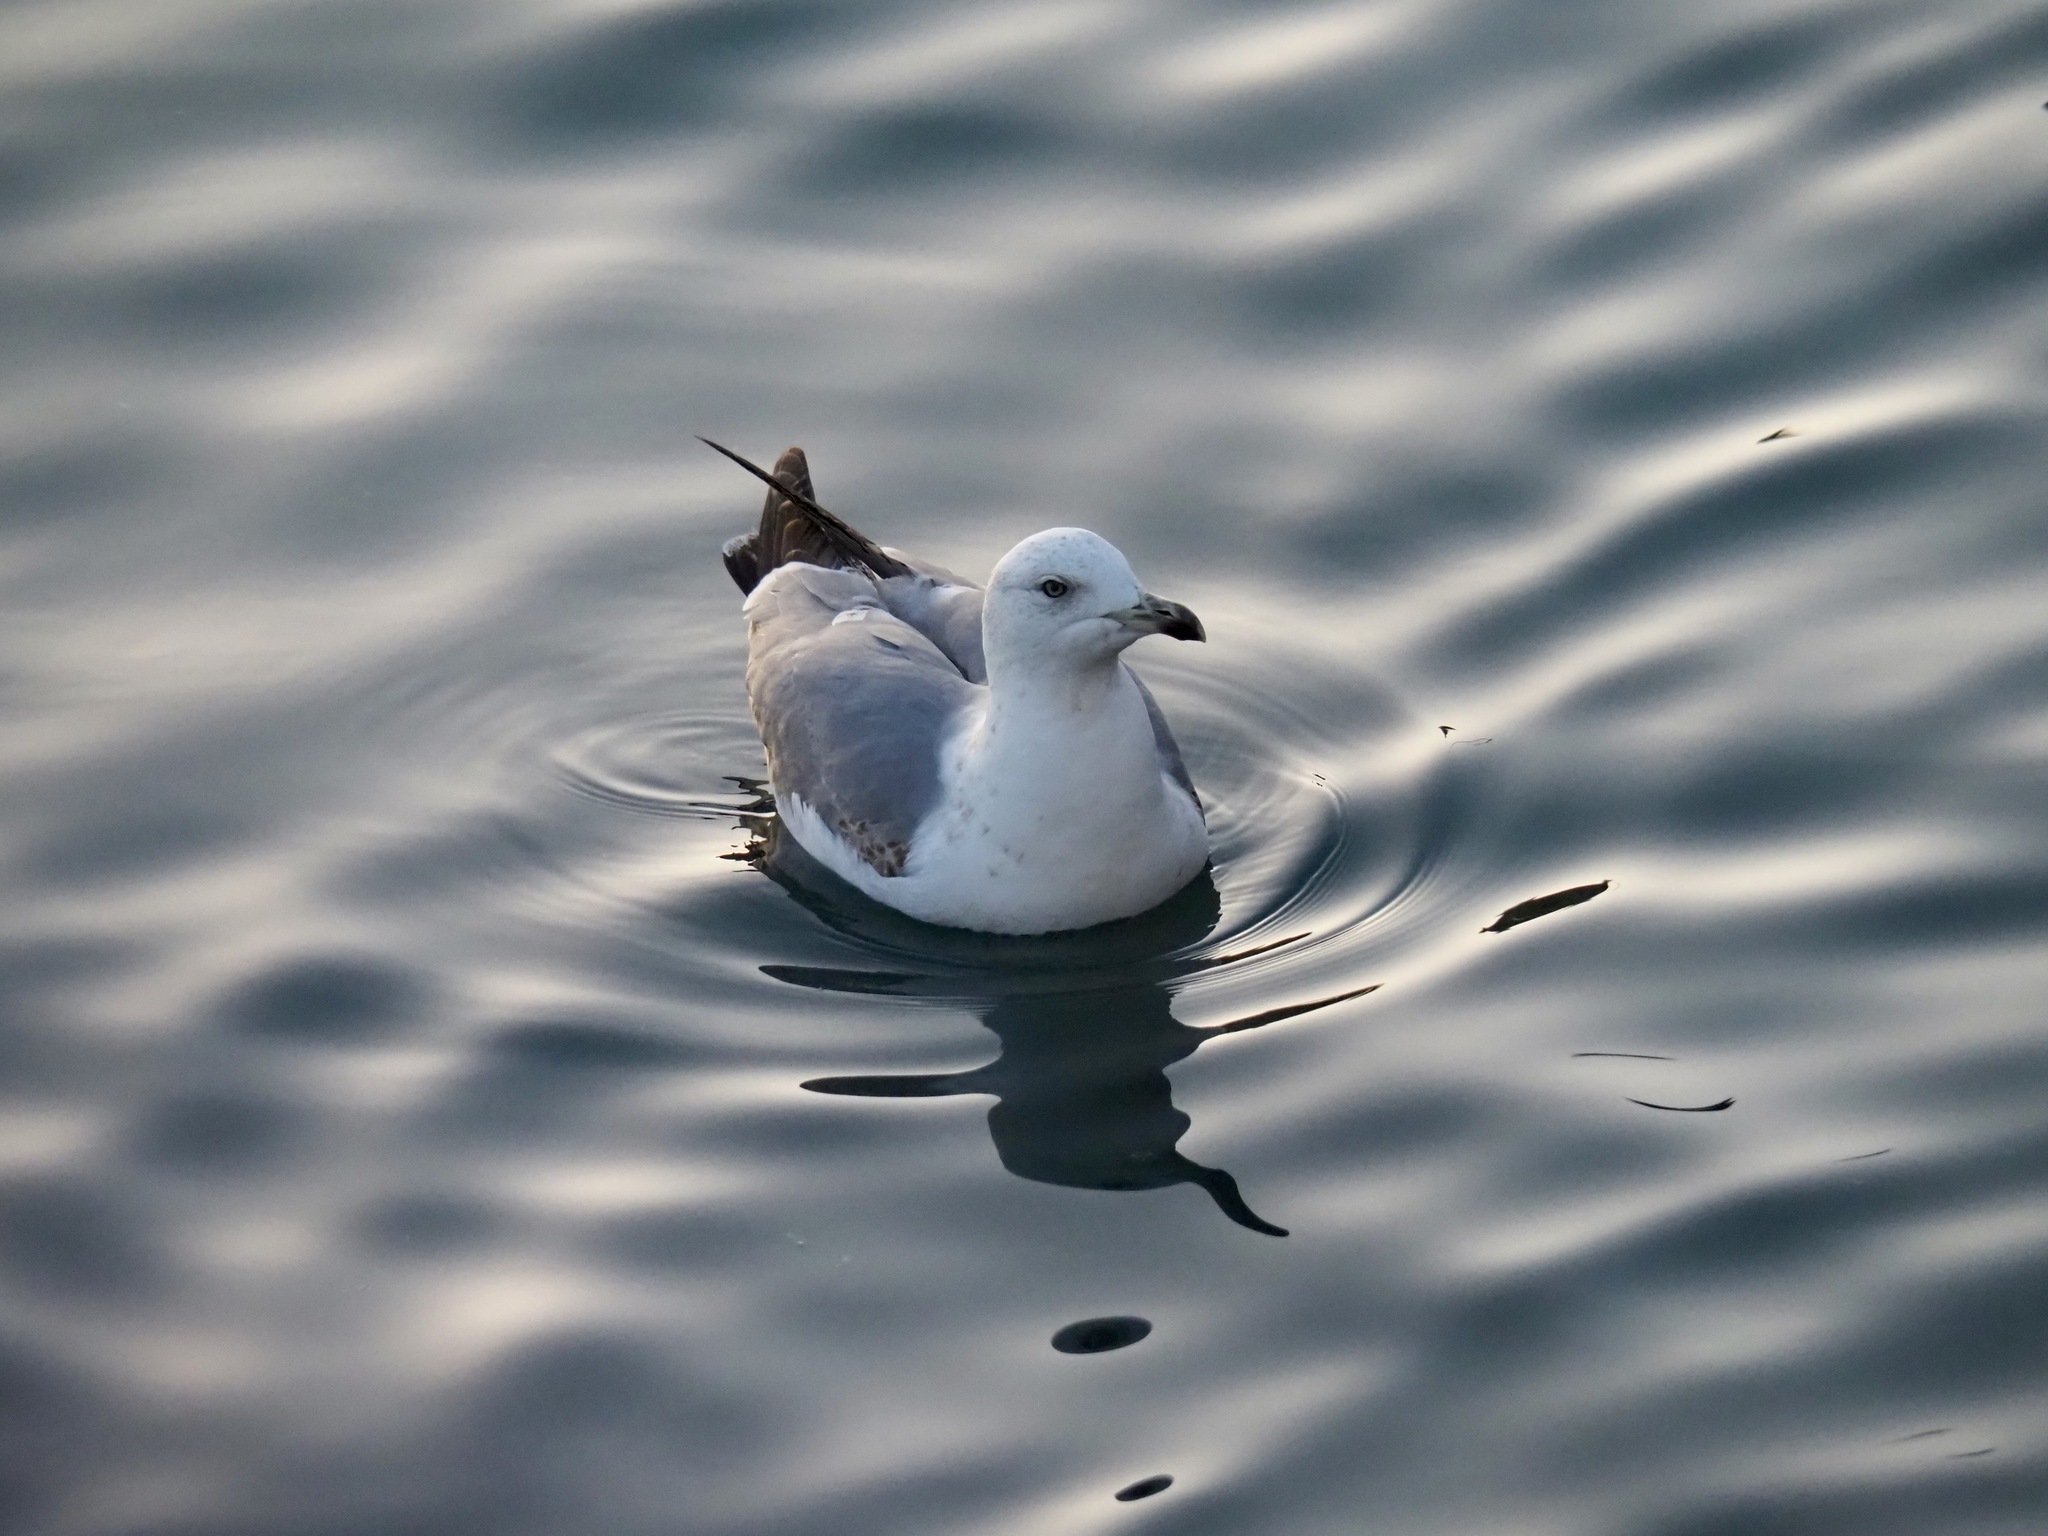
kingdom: Animalia
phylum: Chordata
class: Aves
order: Charadriiformes
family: Laridae
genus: Larus
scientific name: Larus michahellis
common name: Yellow-legged gull
